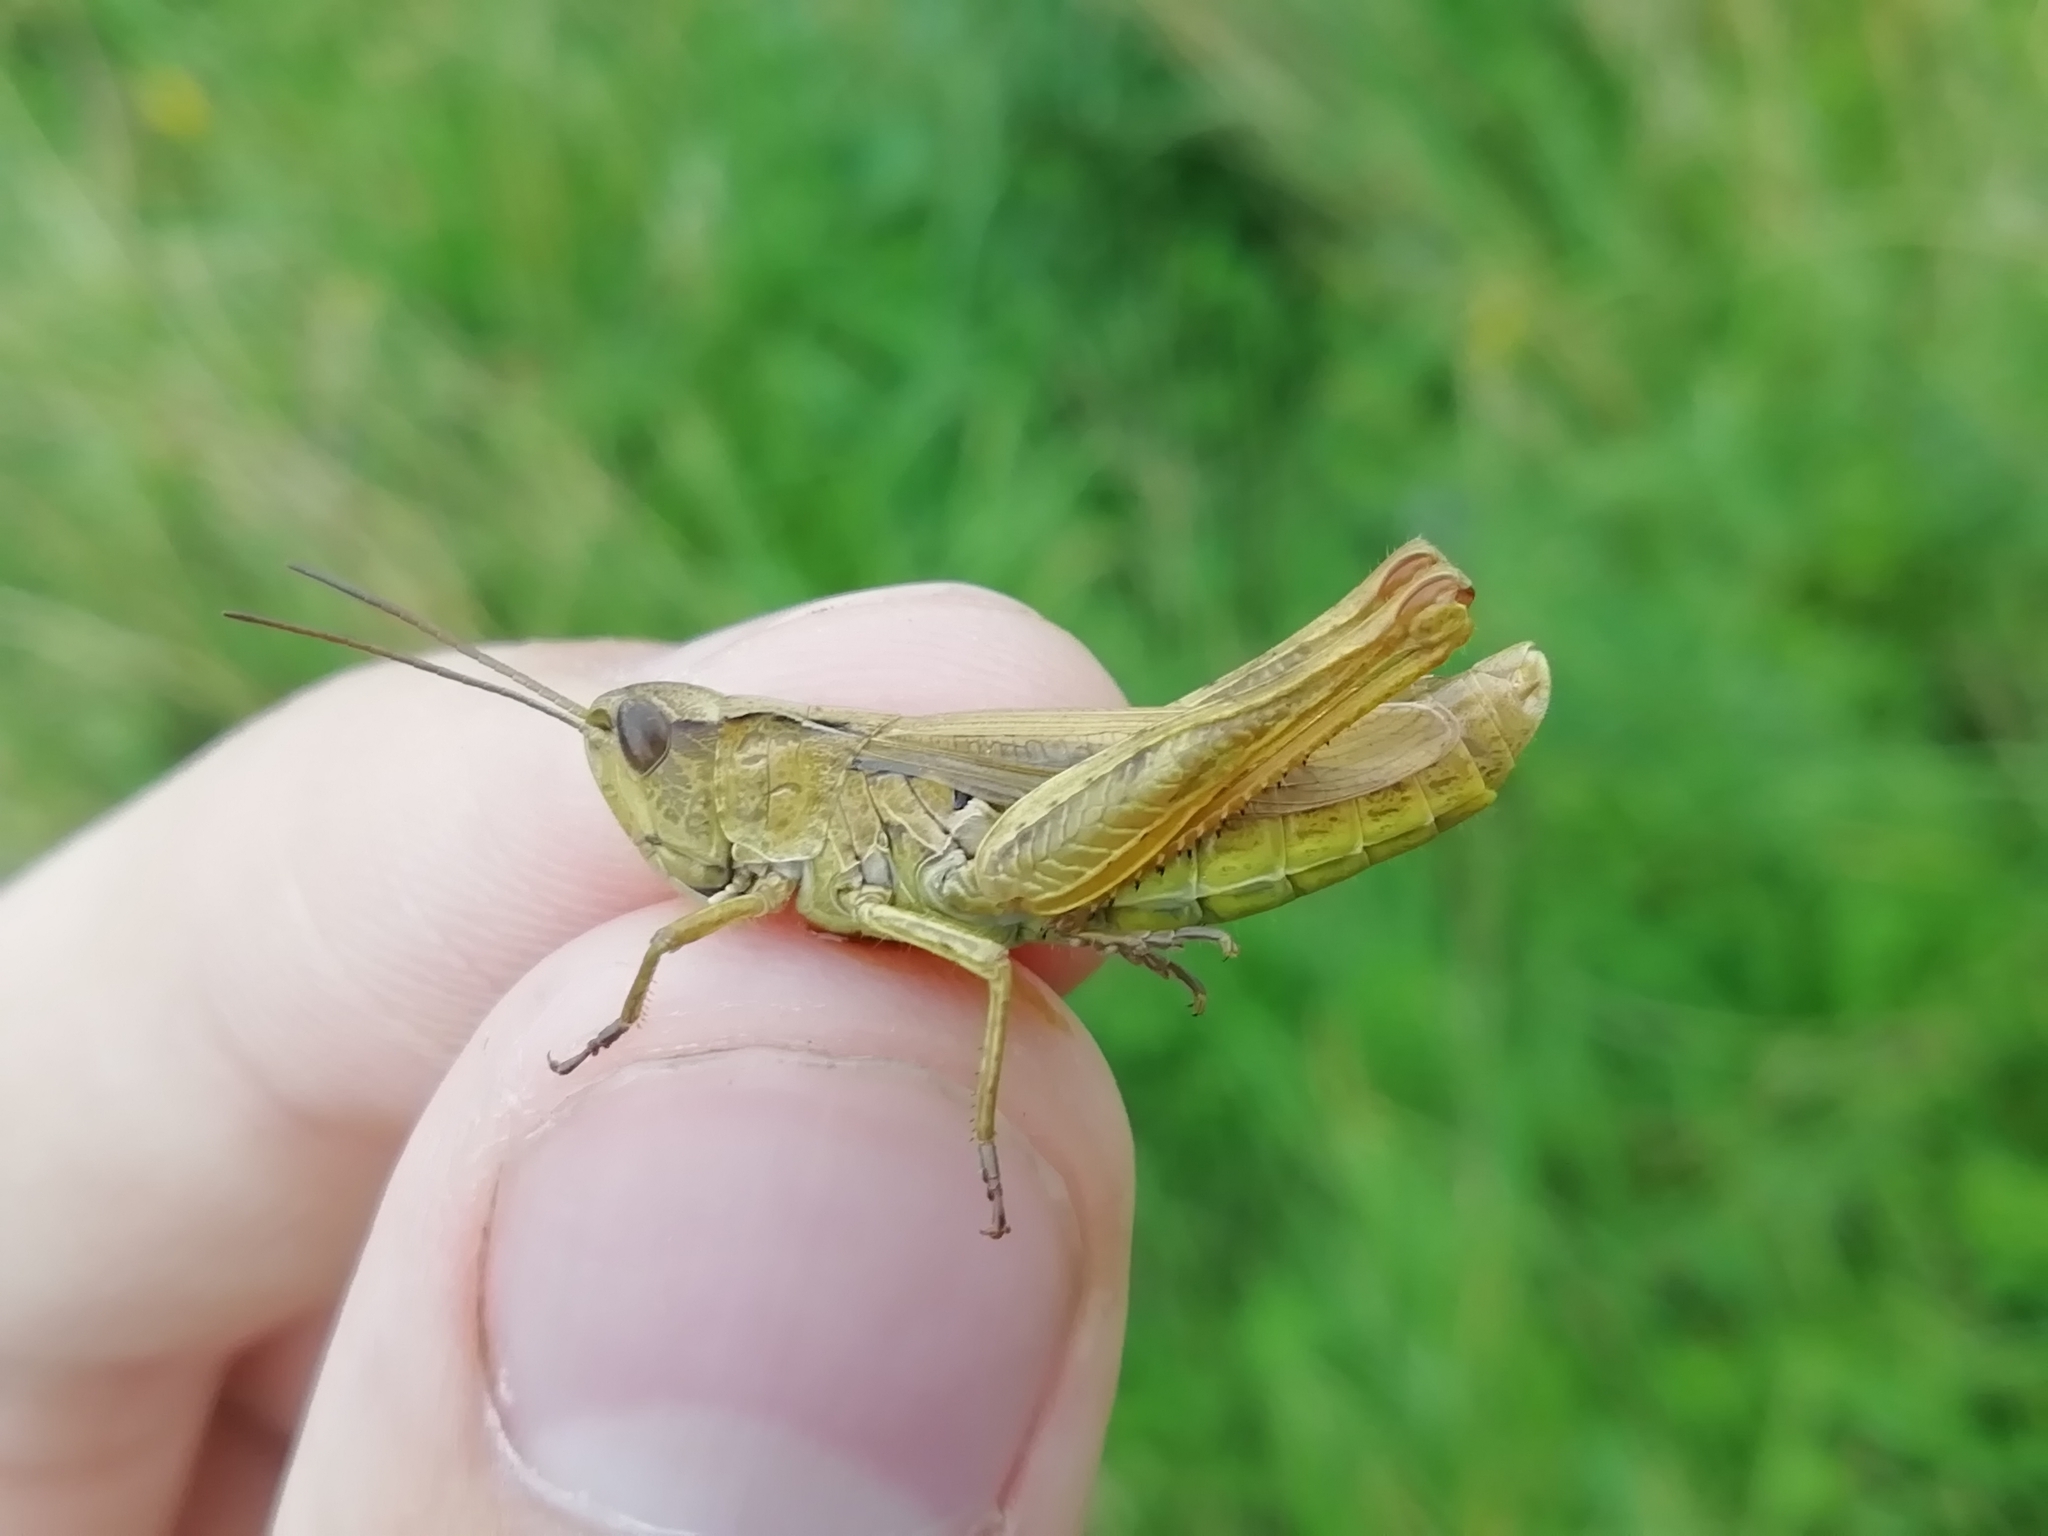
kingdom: Animalia
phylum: Arthropoda
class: Insecta
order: Orthoptera
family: Acrididae
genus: Chorthippus
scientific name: Chorthippus apricarius
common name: Upland field grasshopper
